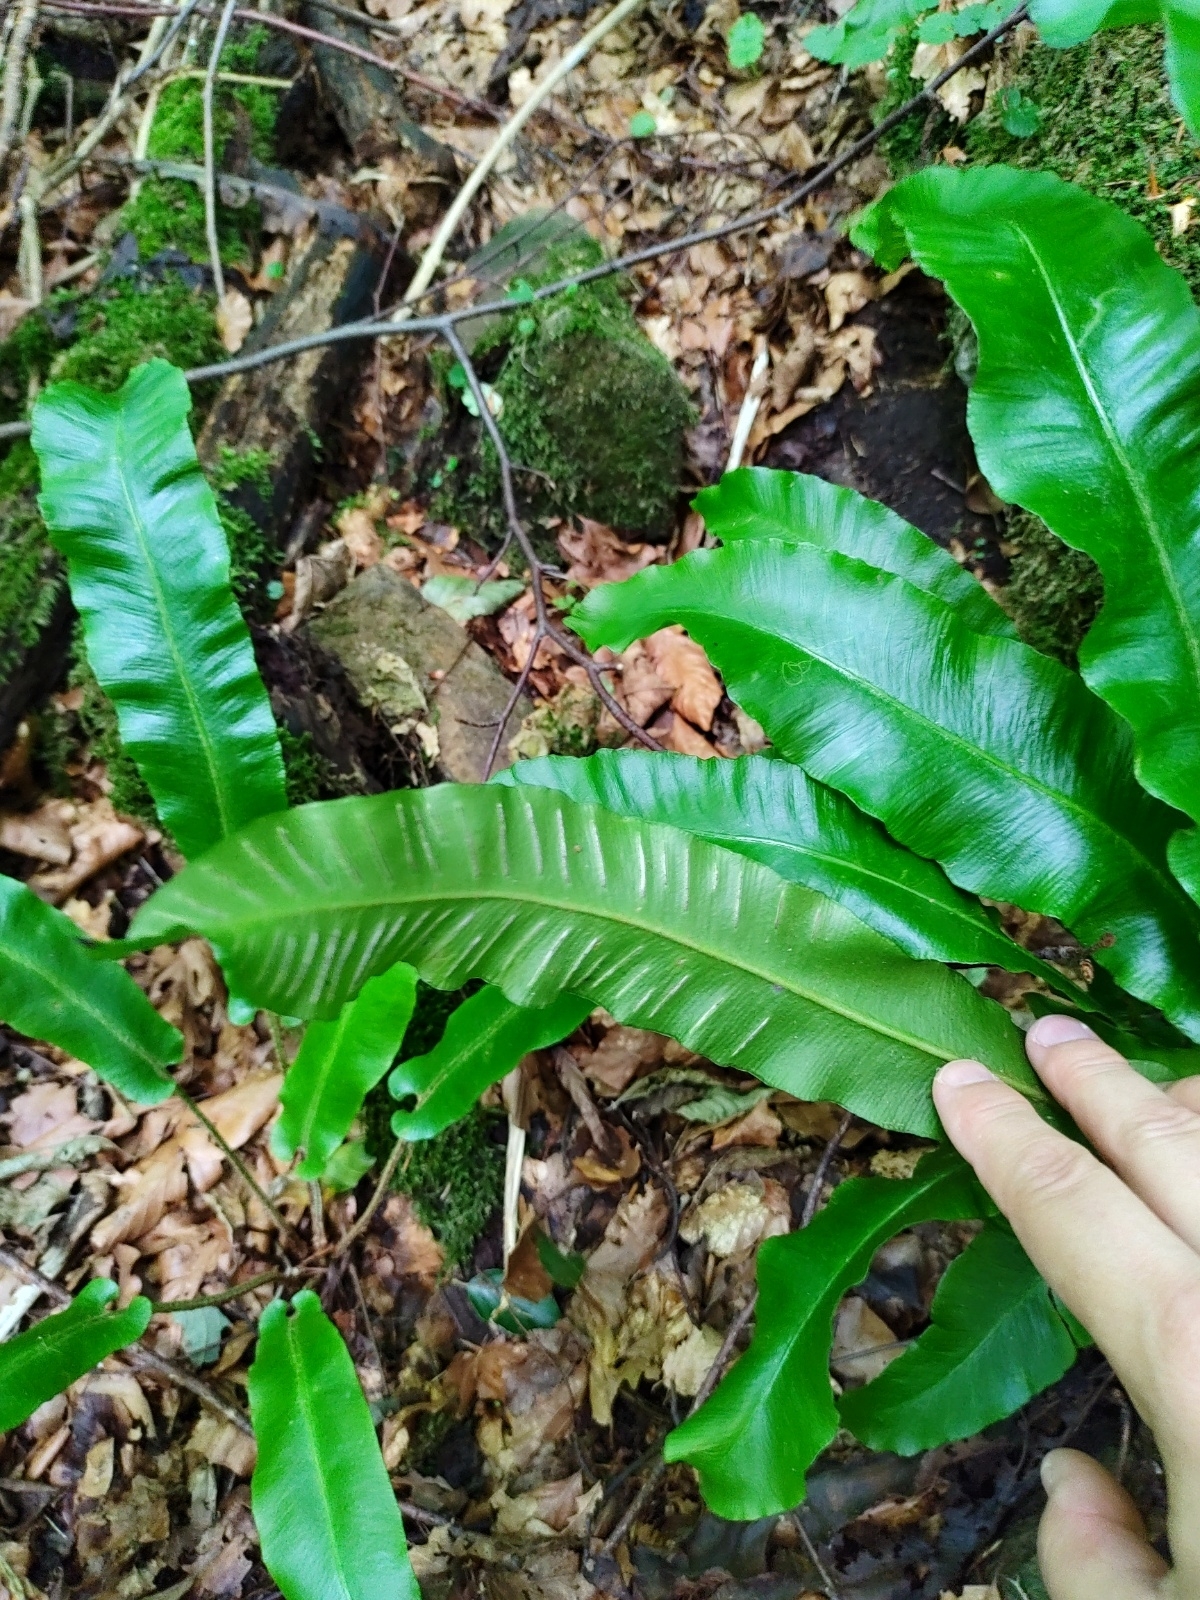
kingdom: Plantae
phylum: Tracheophyta
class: Polypodiopsida
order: Polypodiales
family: Aspleniaceae
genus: Asplenium
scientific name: Asplenium scolopendrium
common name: Hart's-tongue fern
